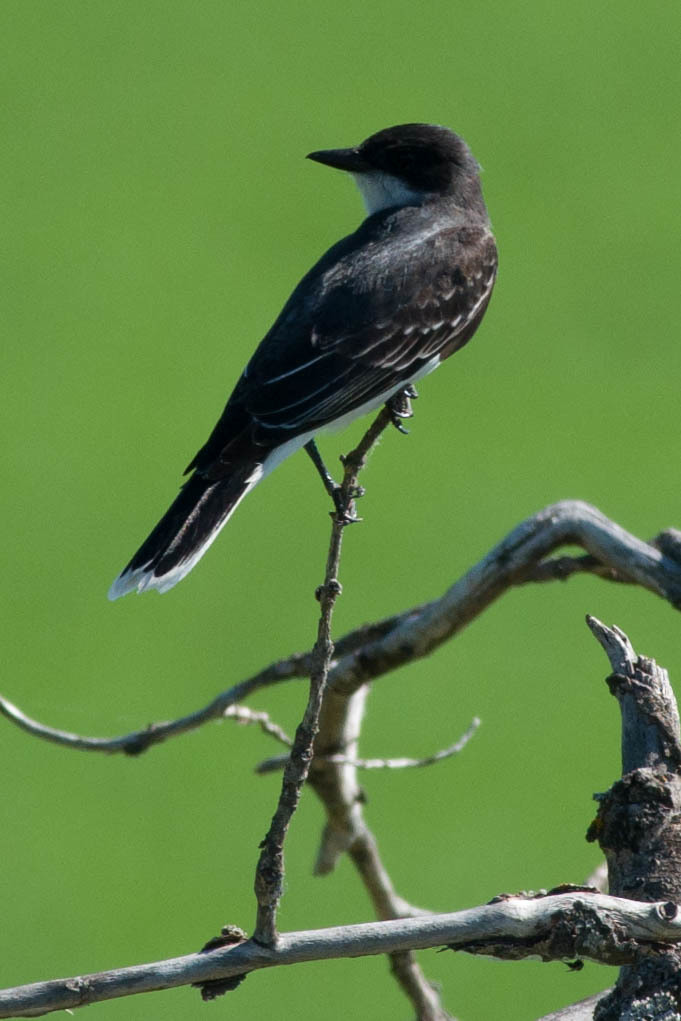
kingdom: Animalia
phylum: Chordata
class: Aves
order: Passeriformes
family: Tyrannidae
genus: Tyrannus
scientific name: Tyrannus tyrannus
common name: Eastern kingbird
